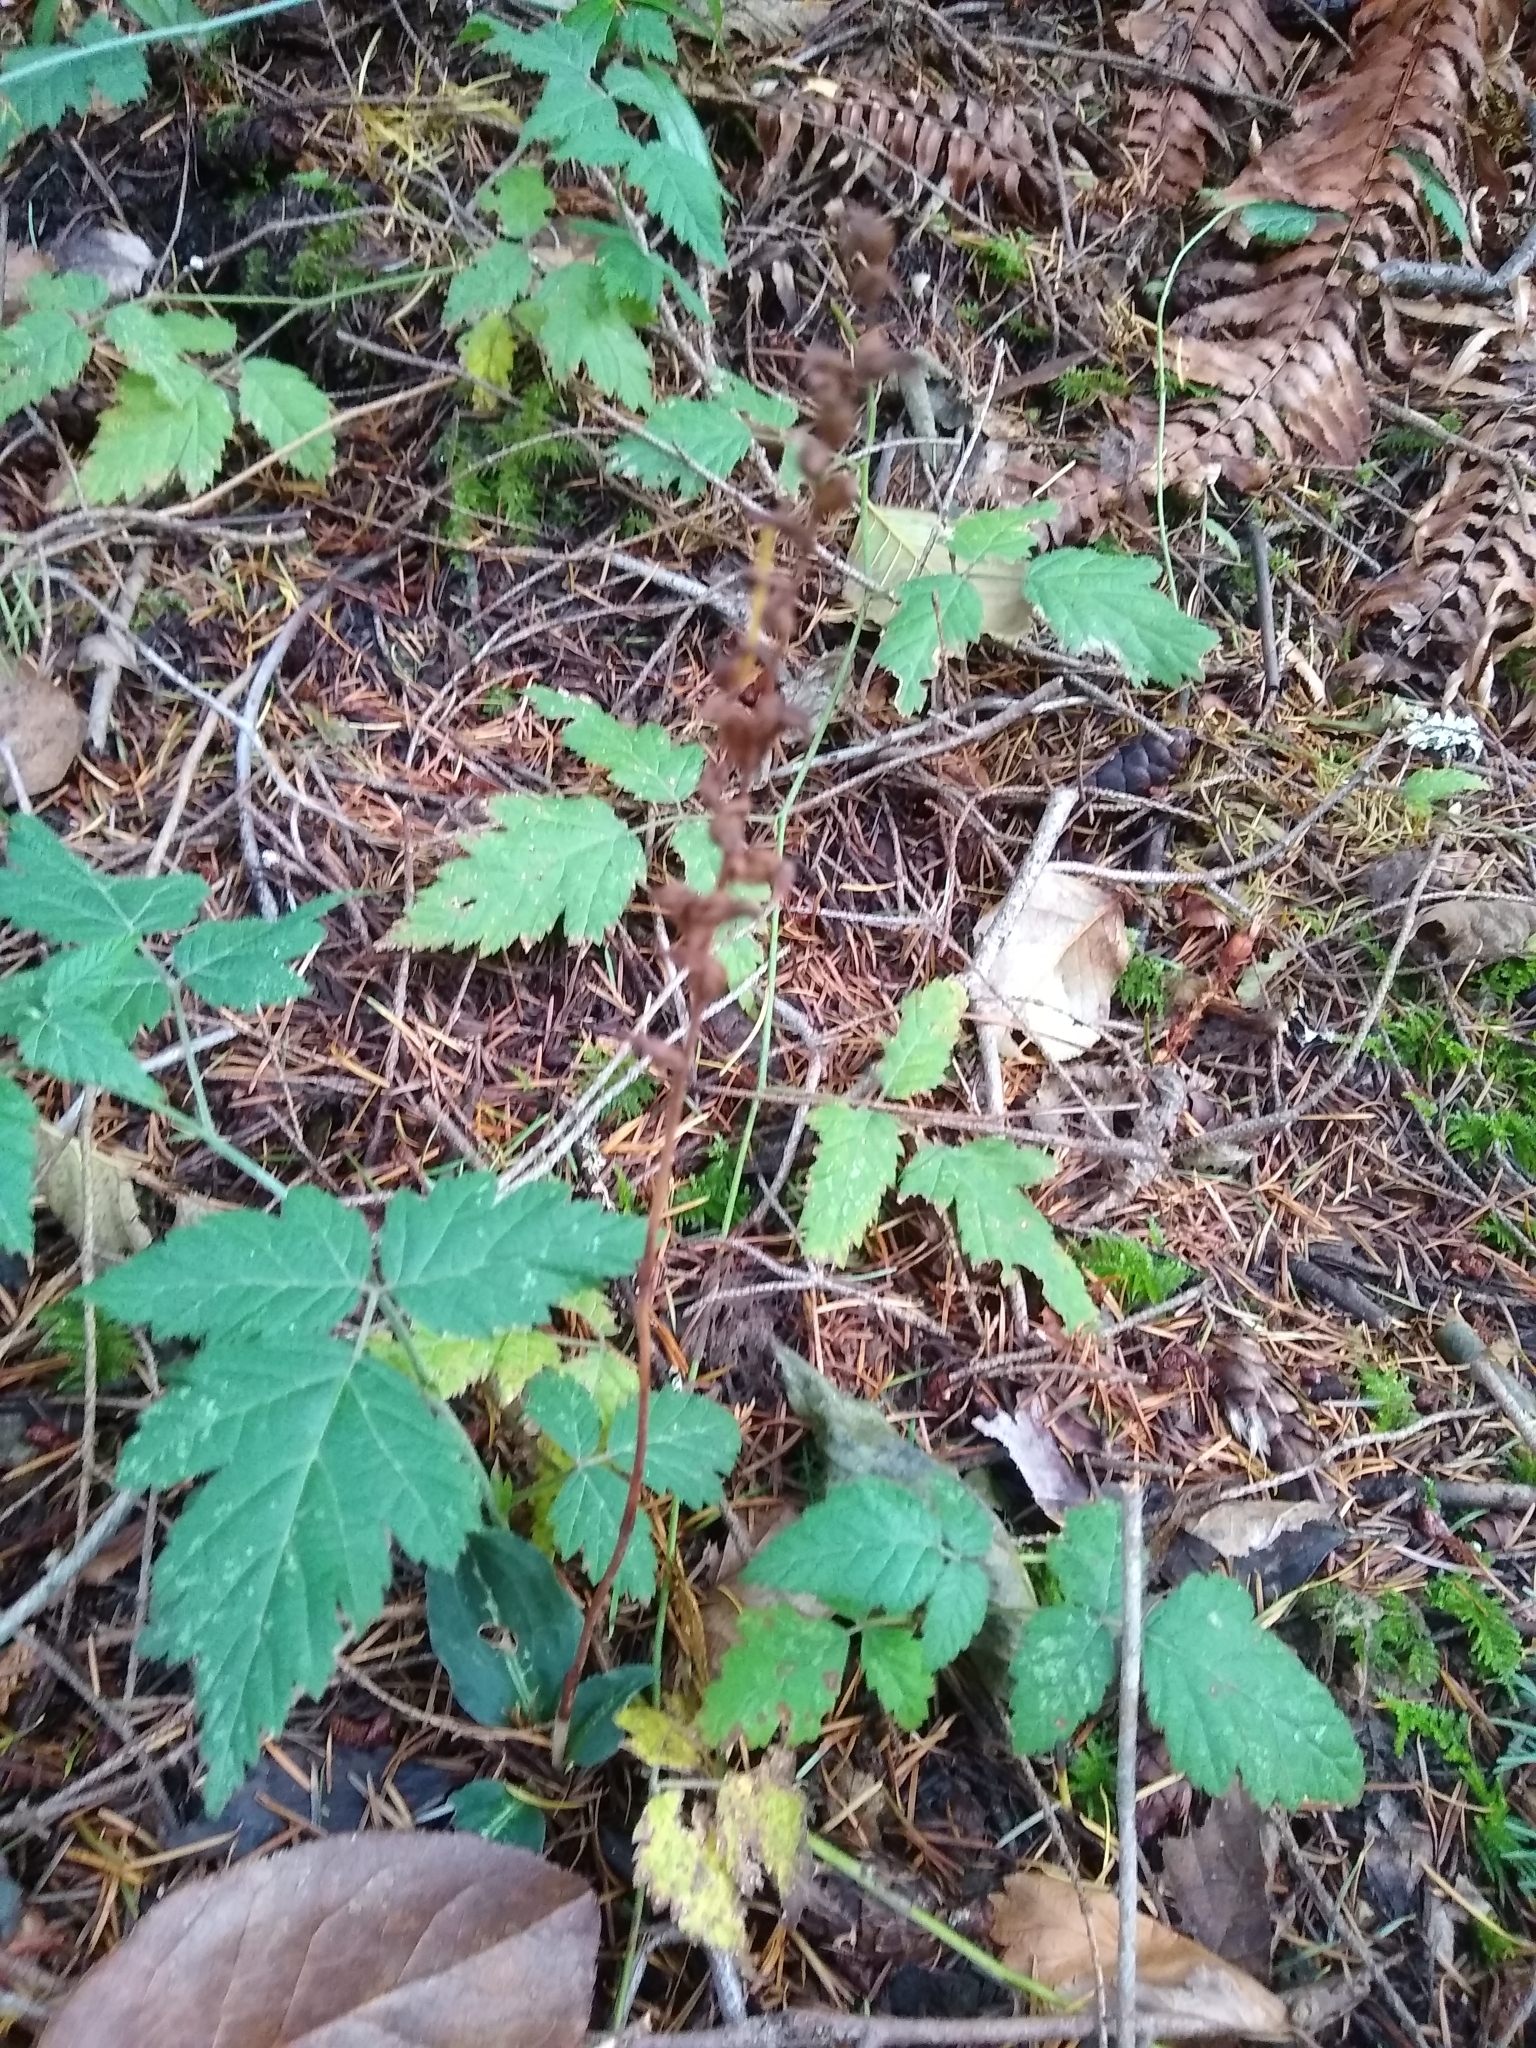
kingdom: Plantae
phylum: Tracheophyta
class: Liliopsida
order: Asparagales
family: Orchidaceae
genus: Goodyera
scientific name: Goodyera oblongifolia
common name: Giant rattlesnake-plantain
